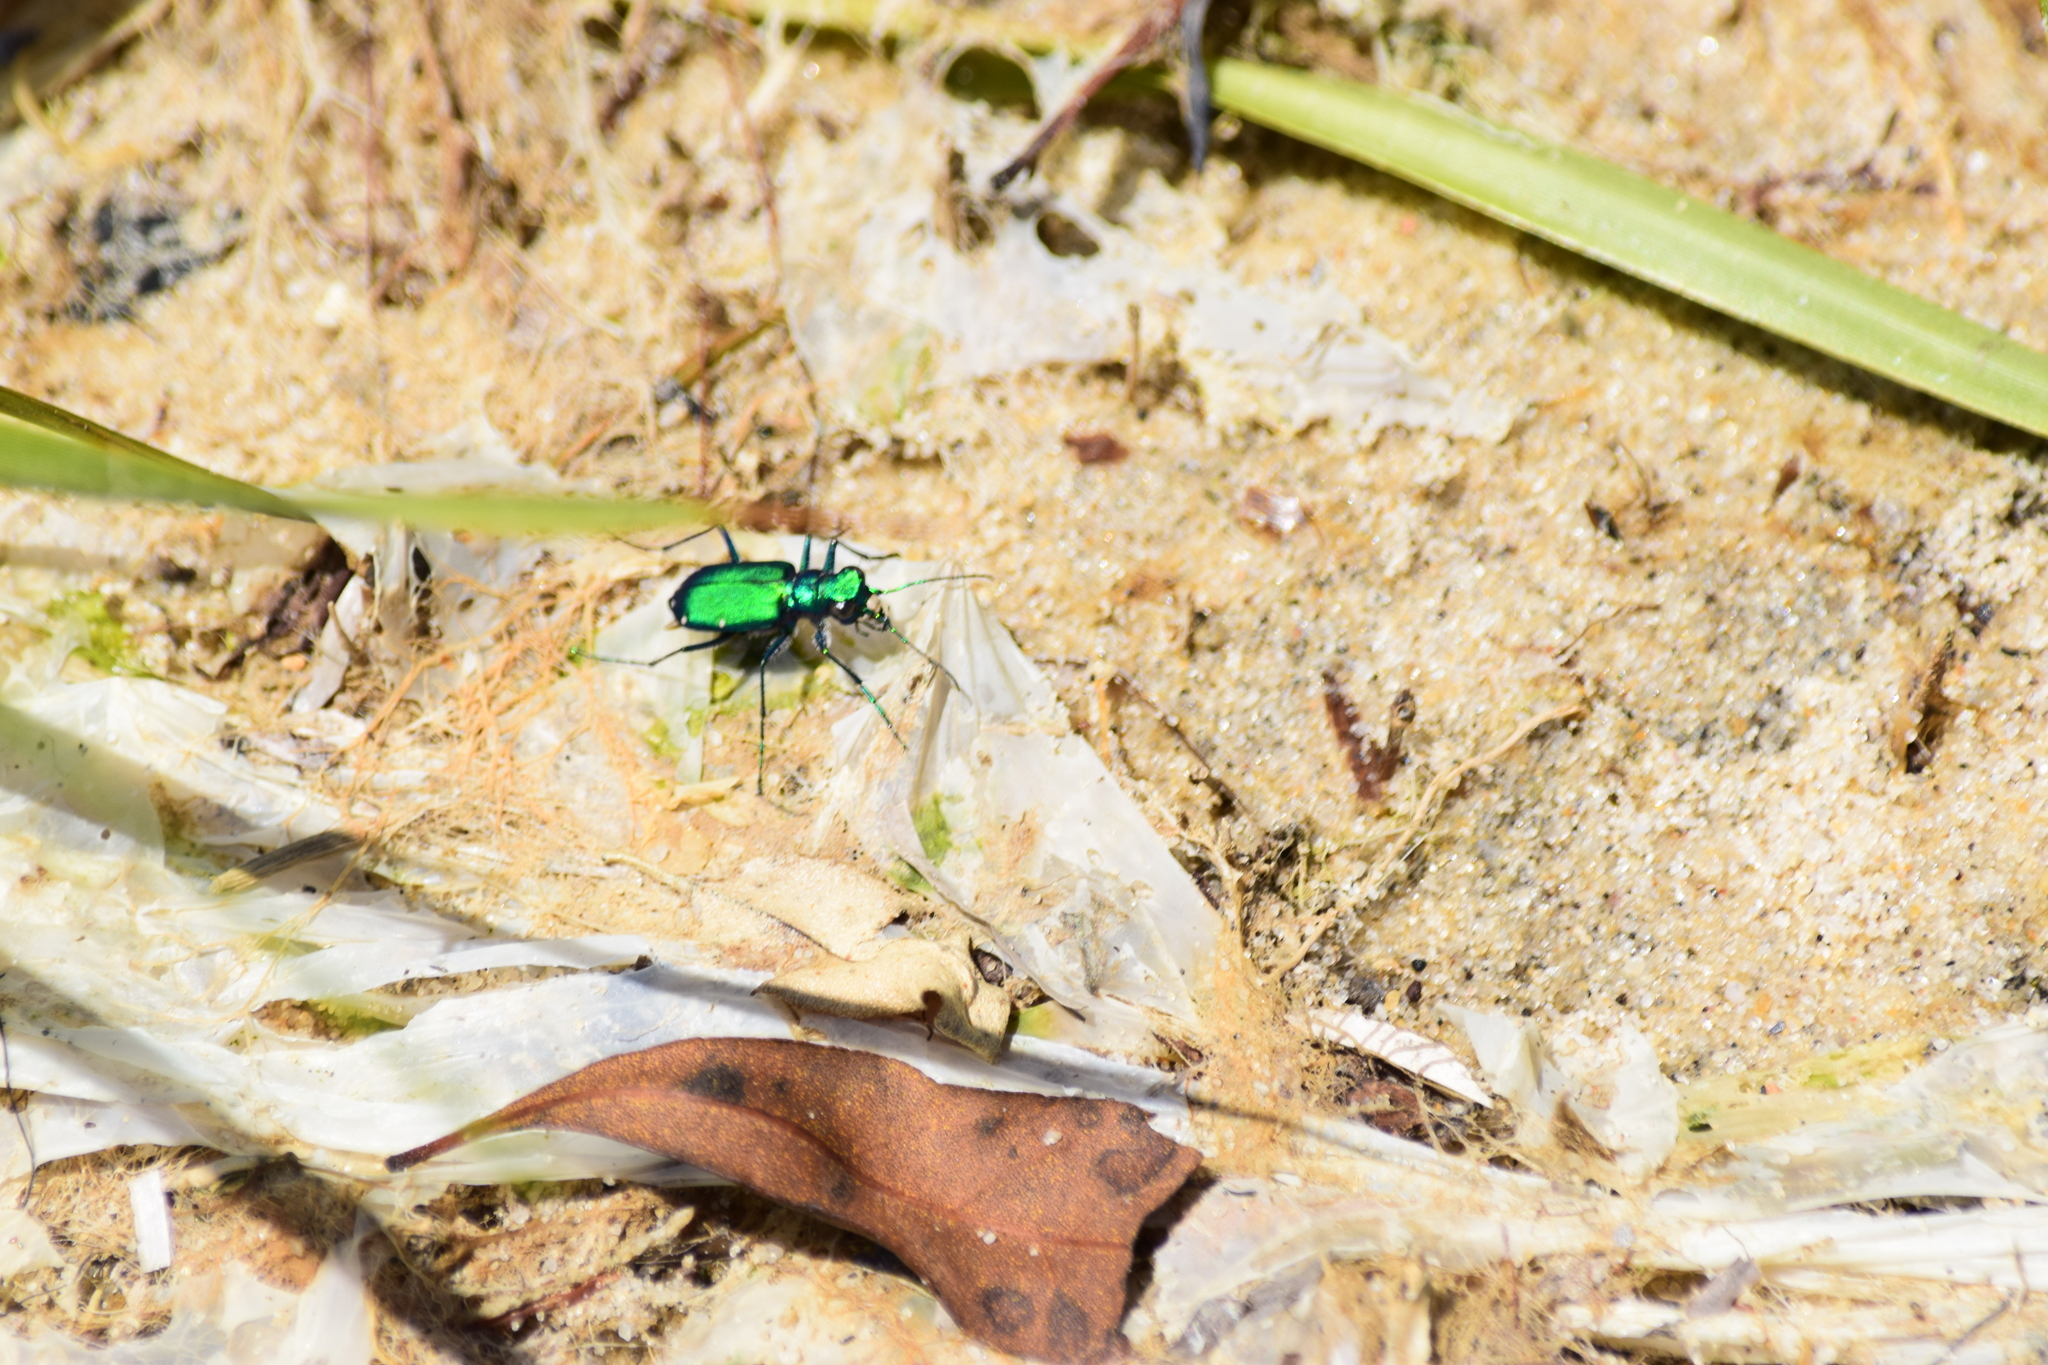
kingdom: Animalia
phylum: Arthropoda
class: Insecta
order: Coleoptera
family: Carabidae
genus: Cicindela
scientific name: Cicindela sexguttata
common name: Six-spotted tiger beetle
